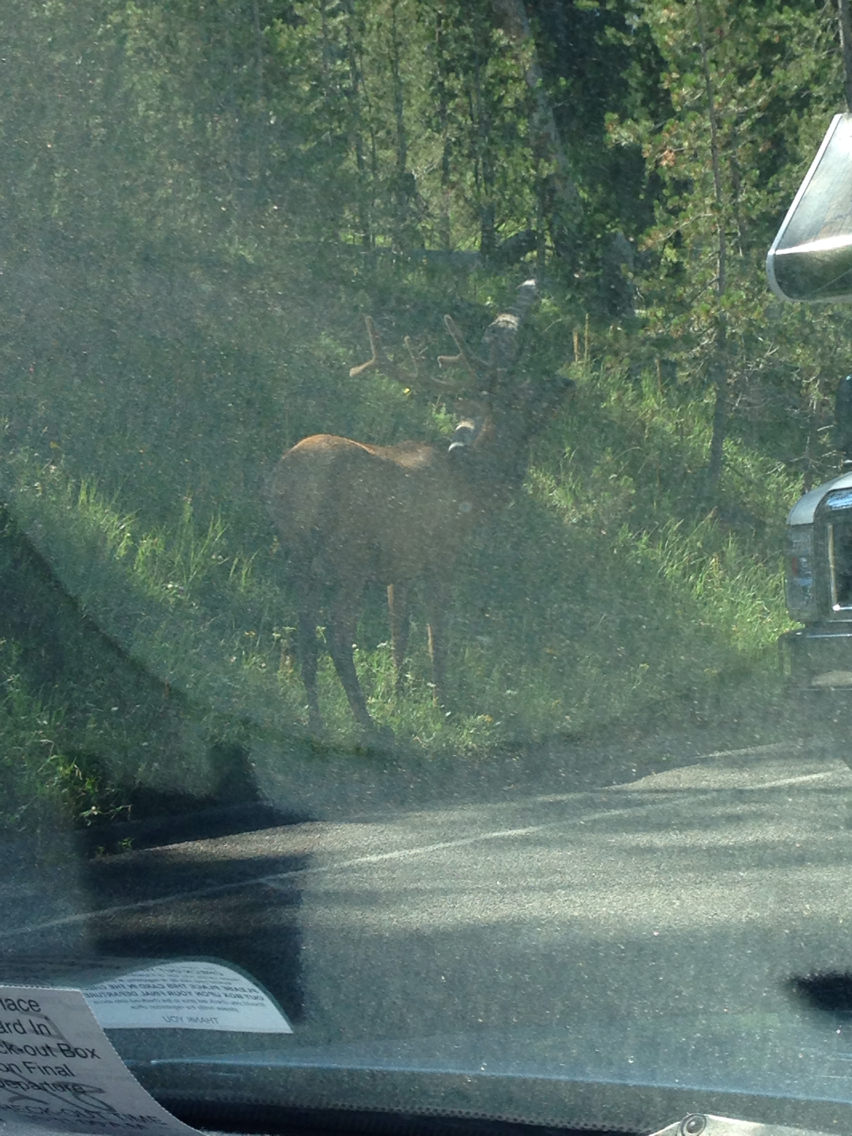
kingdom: Animalia
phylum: Chordata
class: Mammalia
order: Artiodactyla
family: Cervidae
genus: Cervus
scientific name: Cervus elaphus
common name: Red deer
